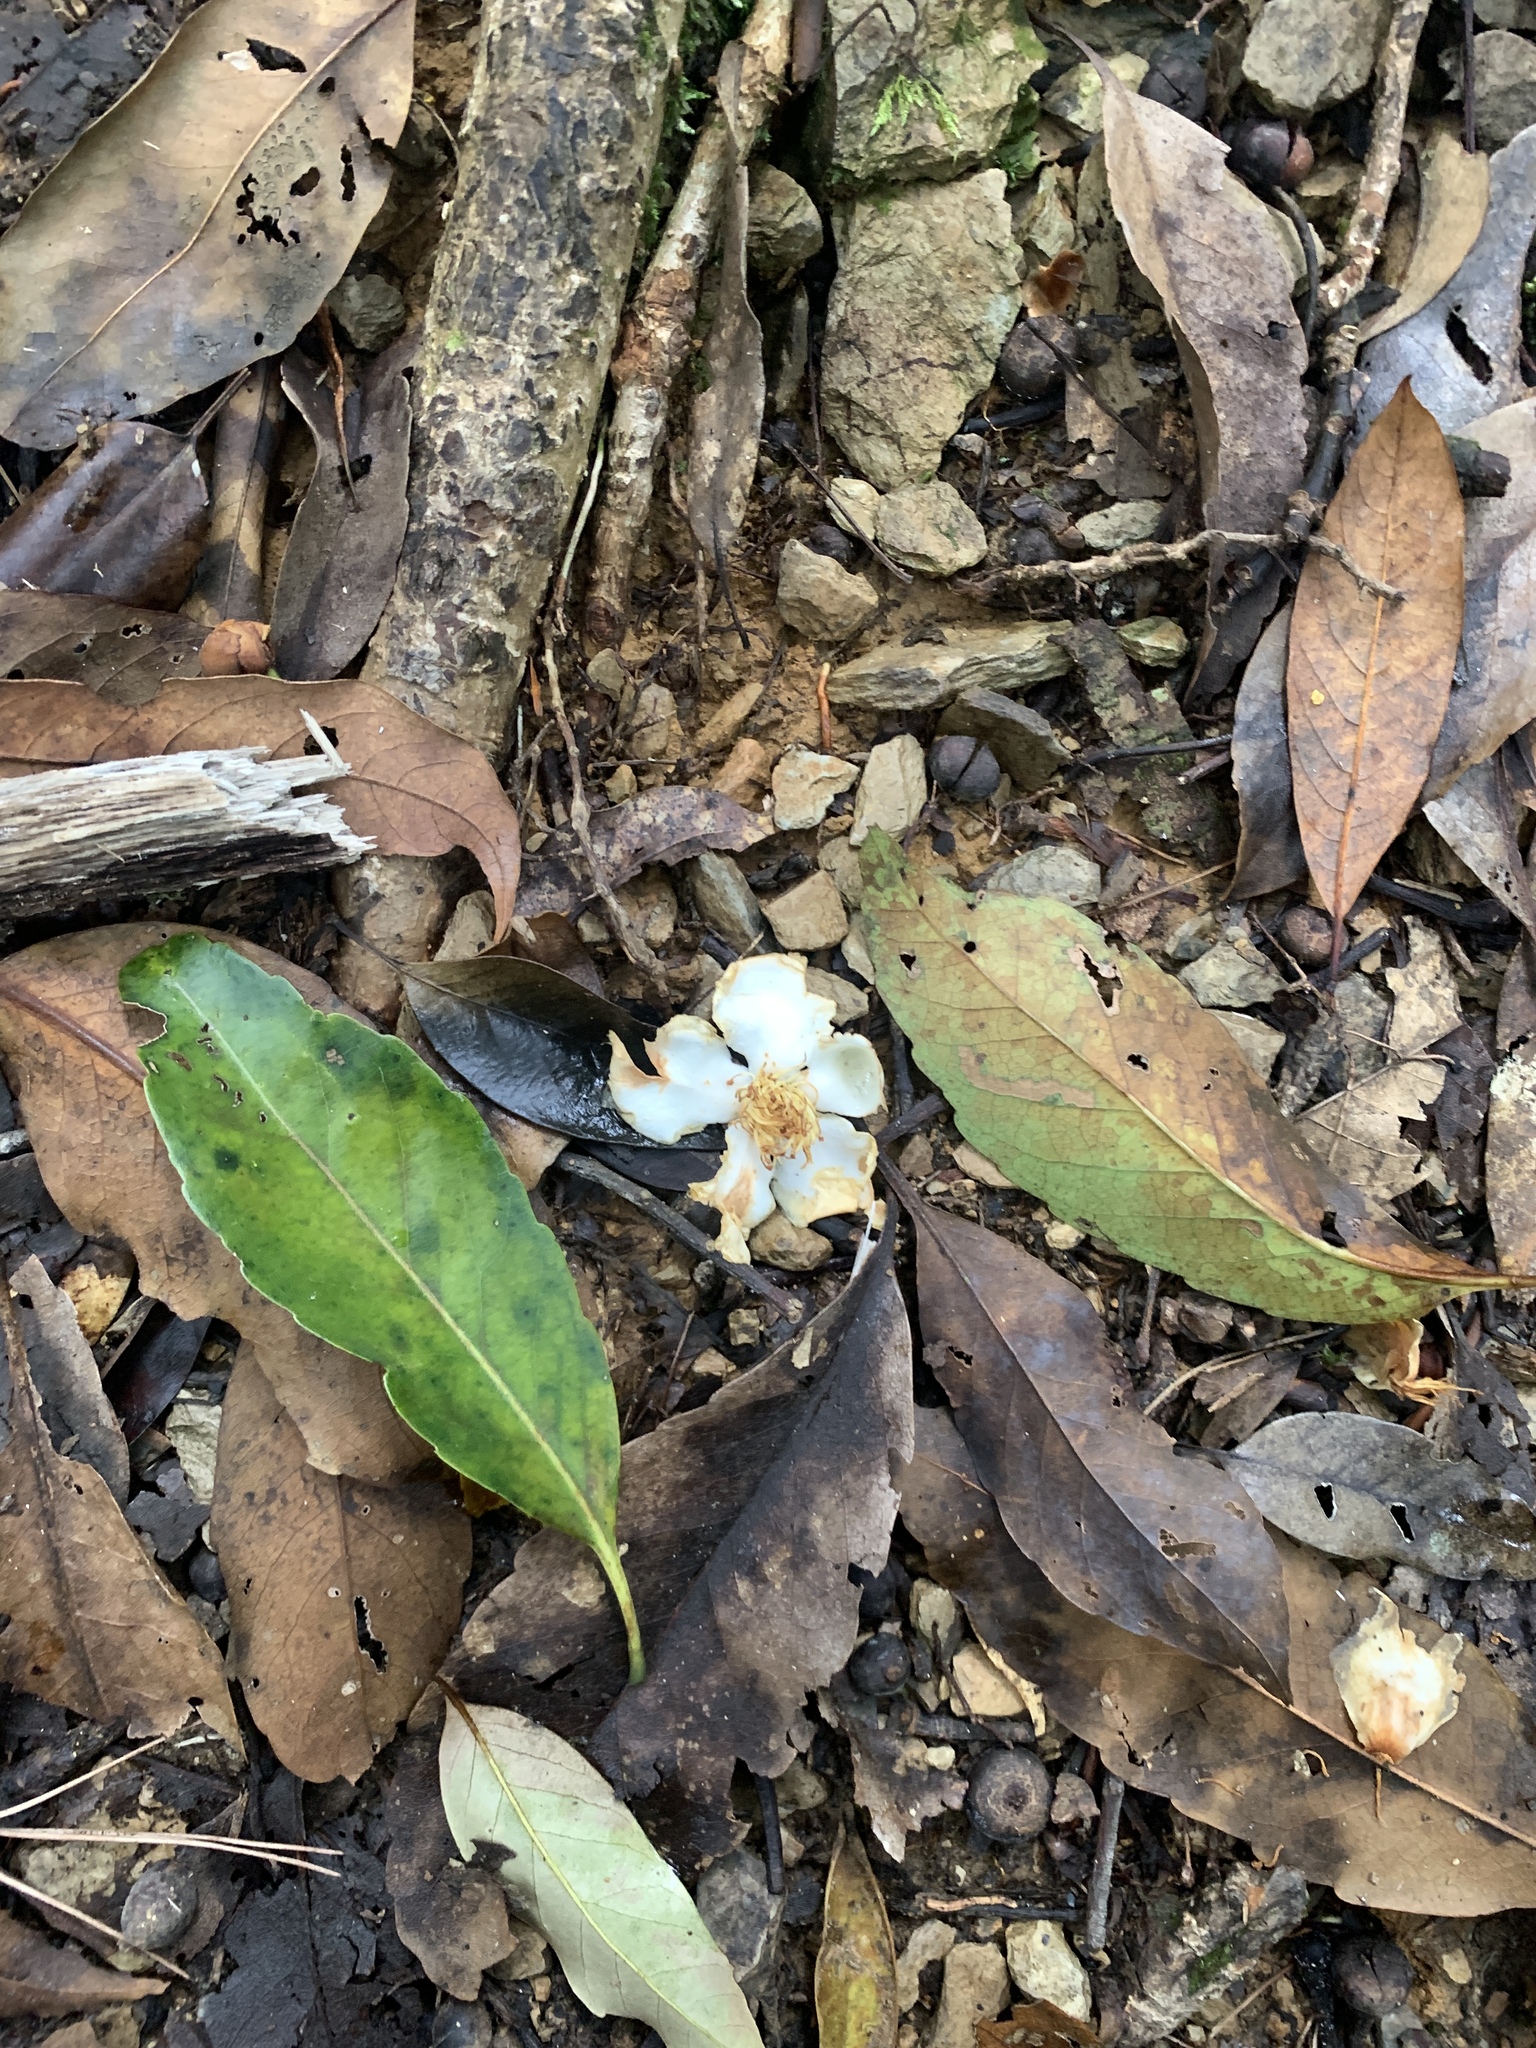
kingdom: Plantae
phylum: Tracheophyta
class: Magnoliopsida
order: Ericales
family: Theaceae
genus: Schima
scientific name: Schima superba
